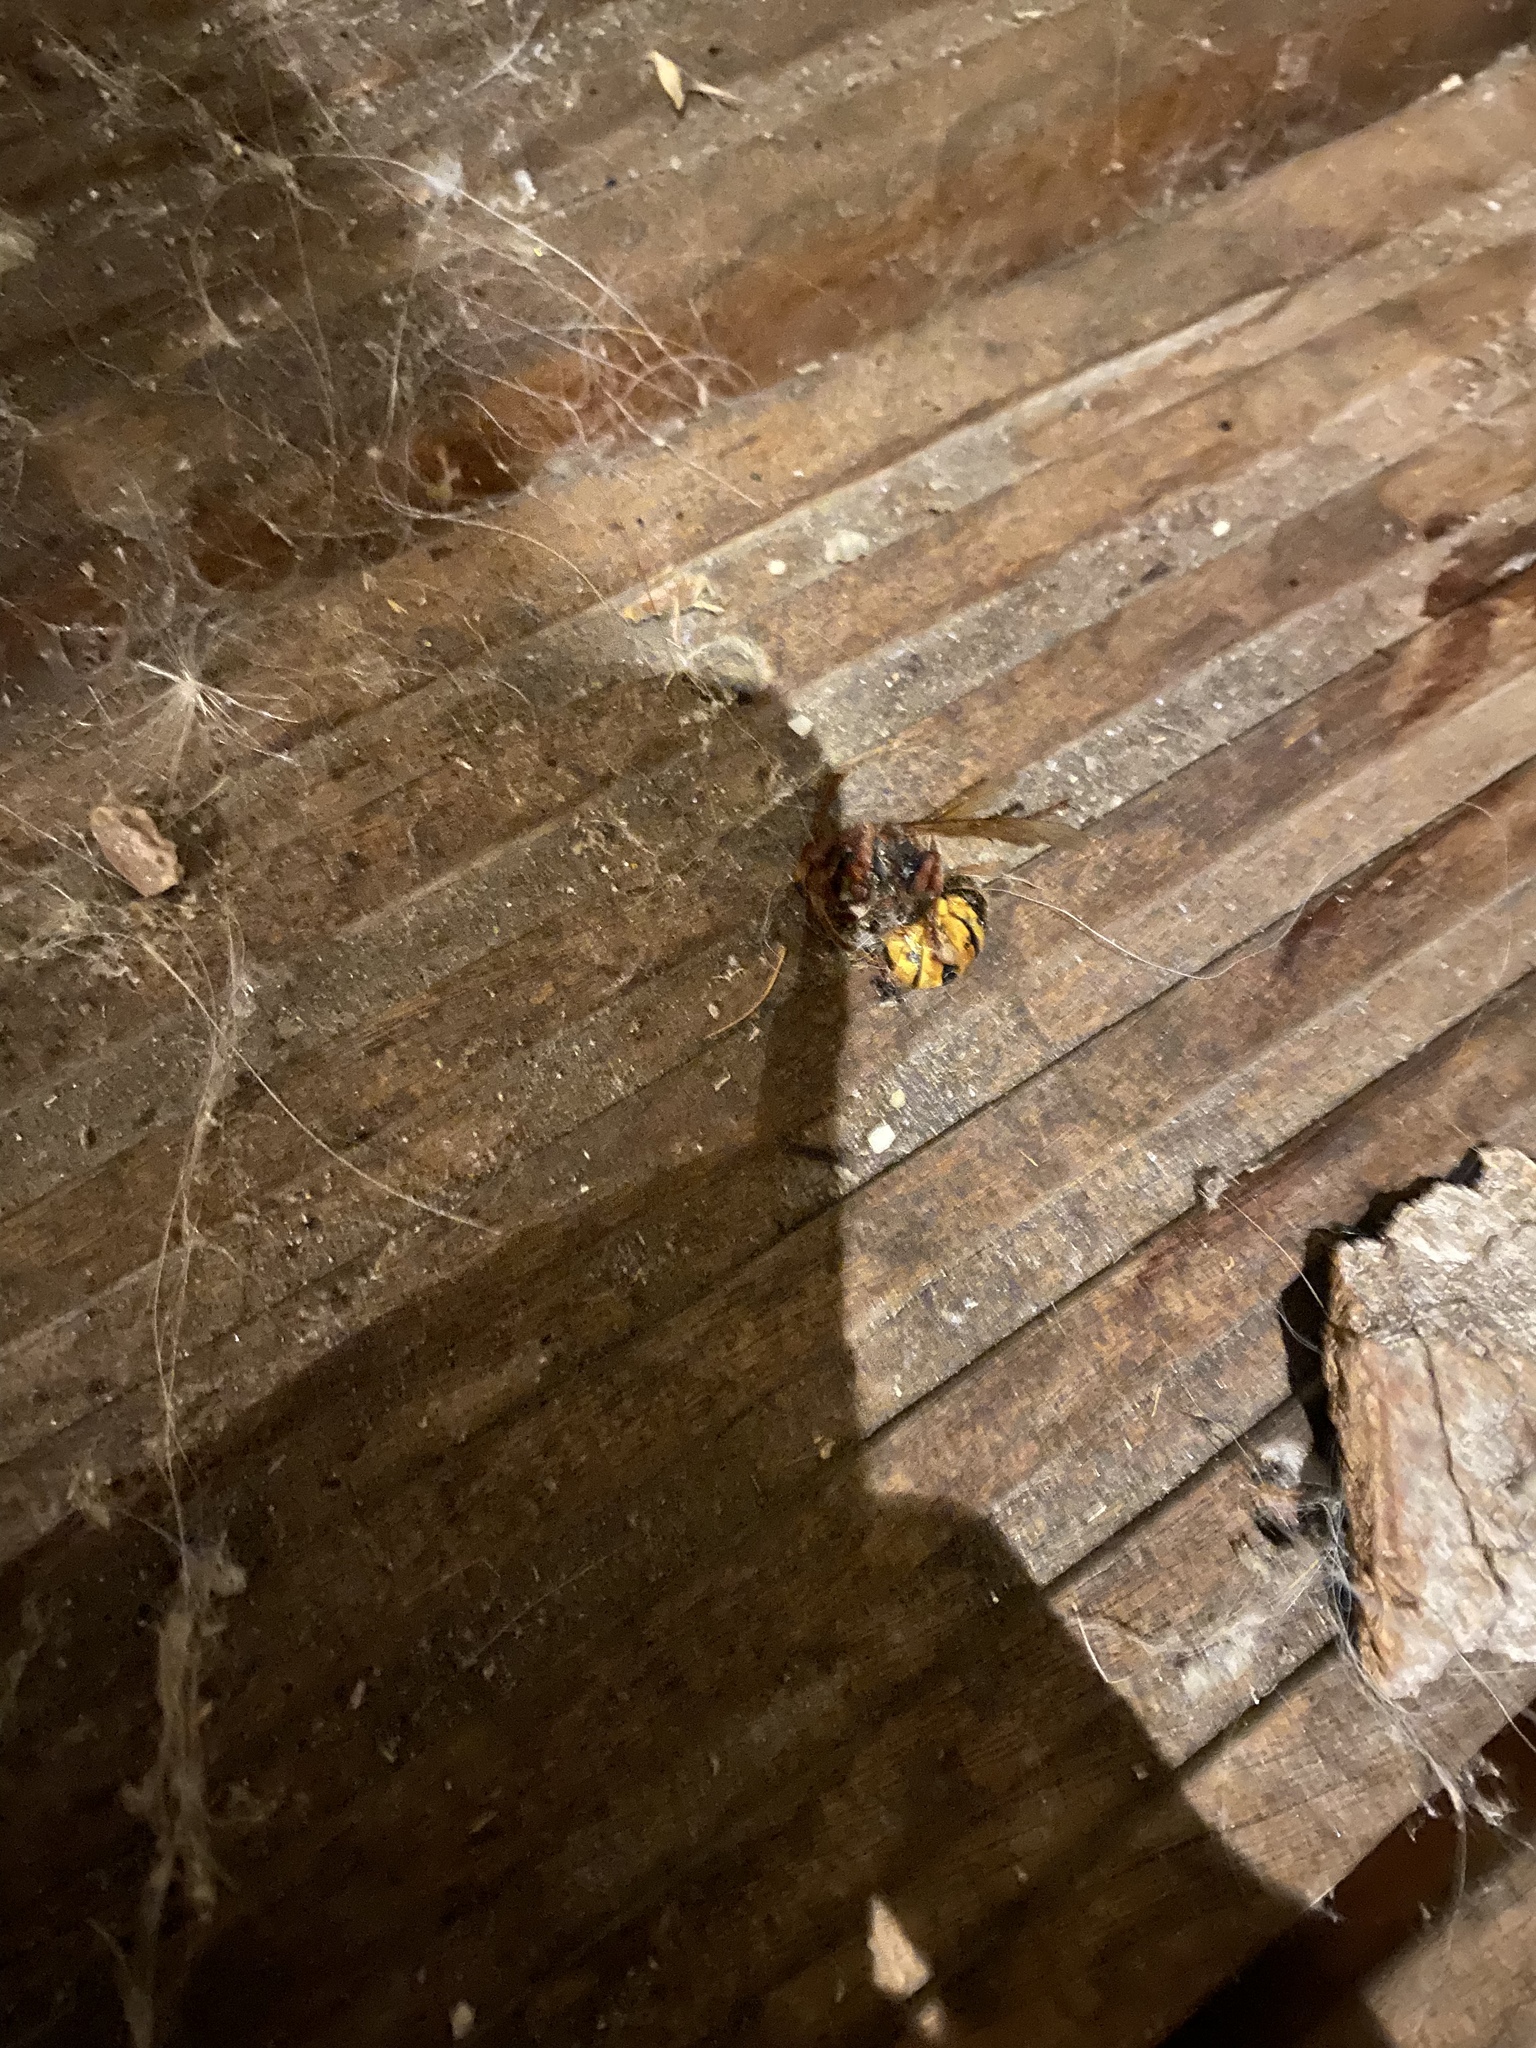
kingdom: Animalia
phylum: Arthropoda
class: Insecta
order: Hymenoptera
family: Vespidae
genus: Vespa
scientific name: Vespa crabro
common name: Hornet
